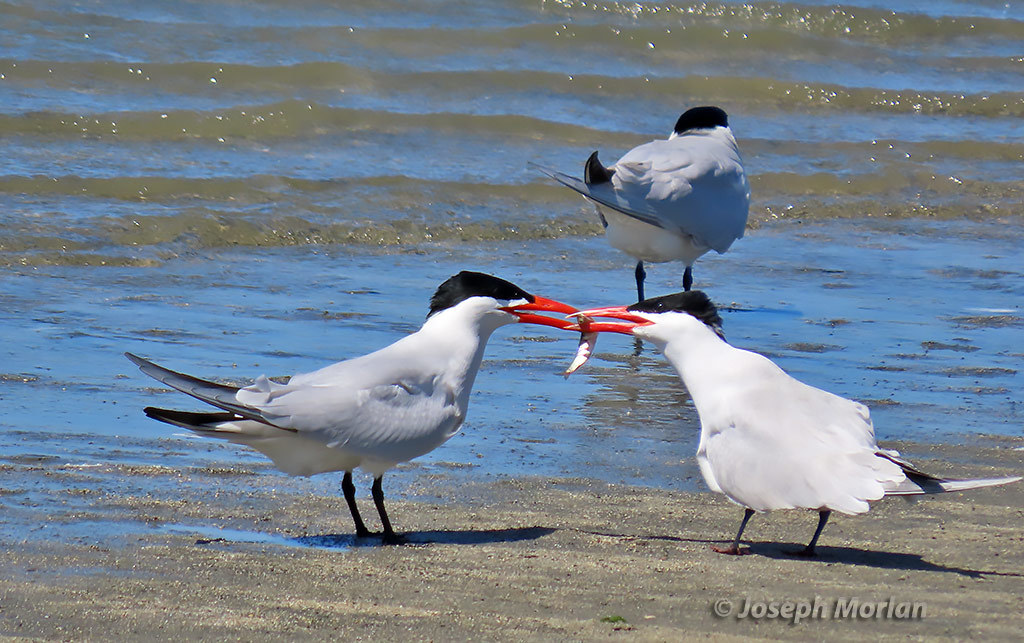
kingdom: Animalia
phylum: Chordata
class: Aves
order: Charadriiformes
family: Laridae
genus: Hydroprogne
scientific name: Hydroprogne caspia
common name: Caspian tern
